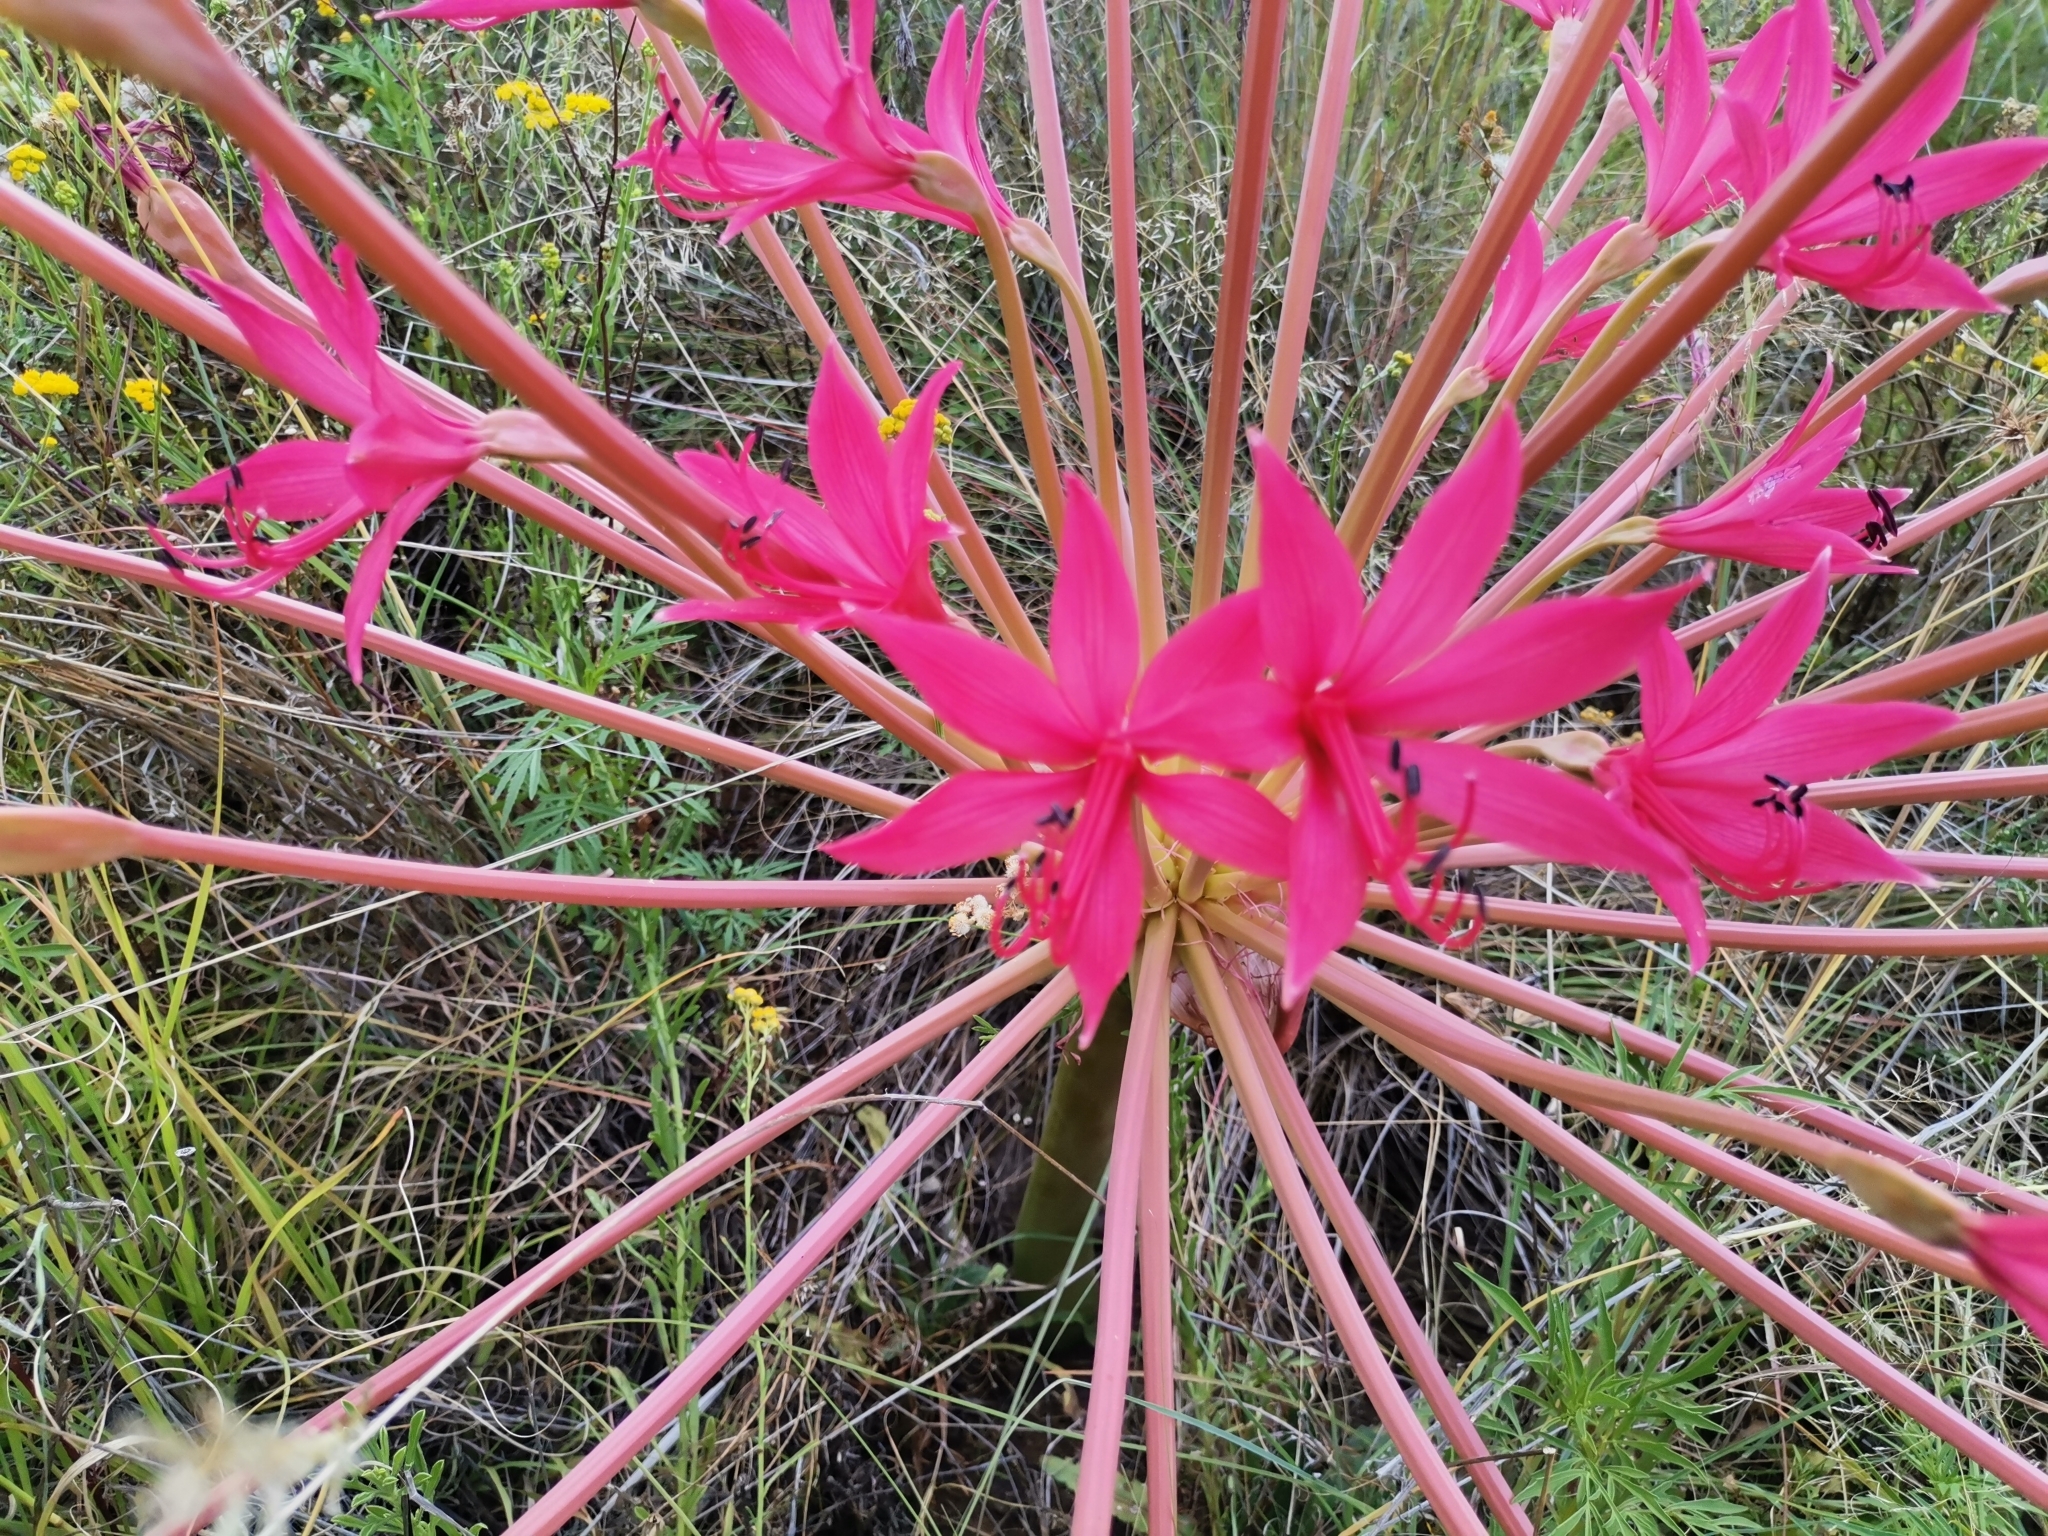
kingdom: Plantae
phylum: Tracheophyta
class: Liliopsida
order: Asparagales
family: Amaryllidaceae
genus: Brunsvigia
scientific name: Brunsvigia radulosa
